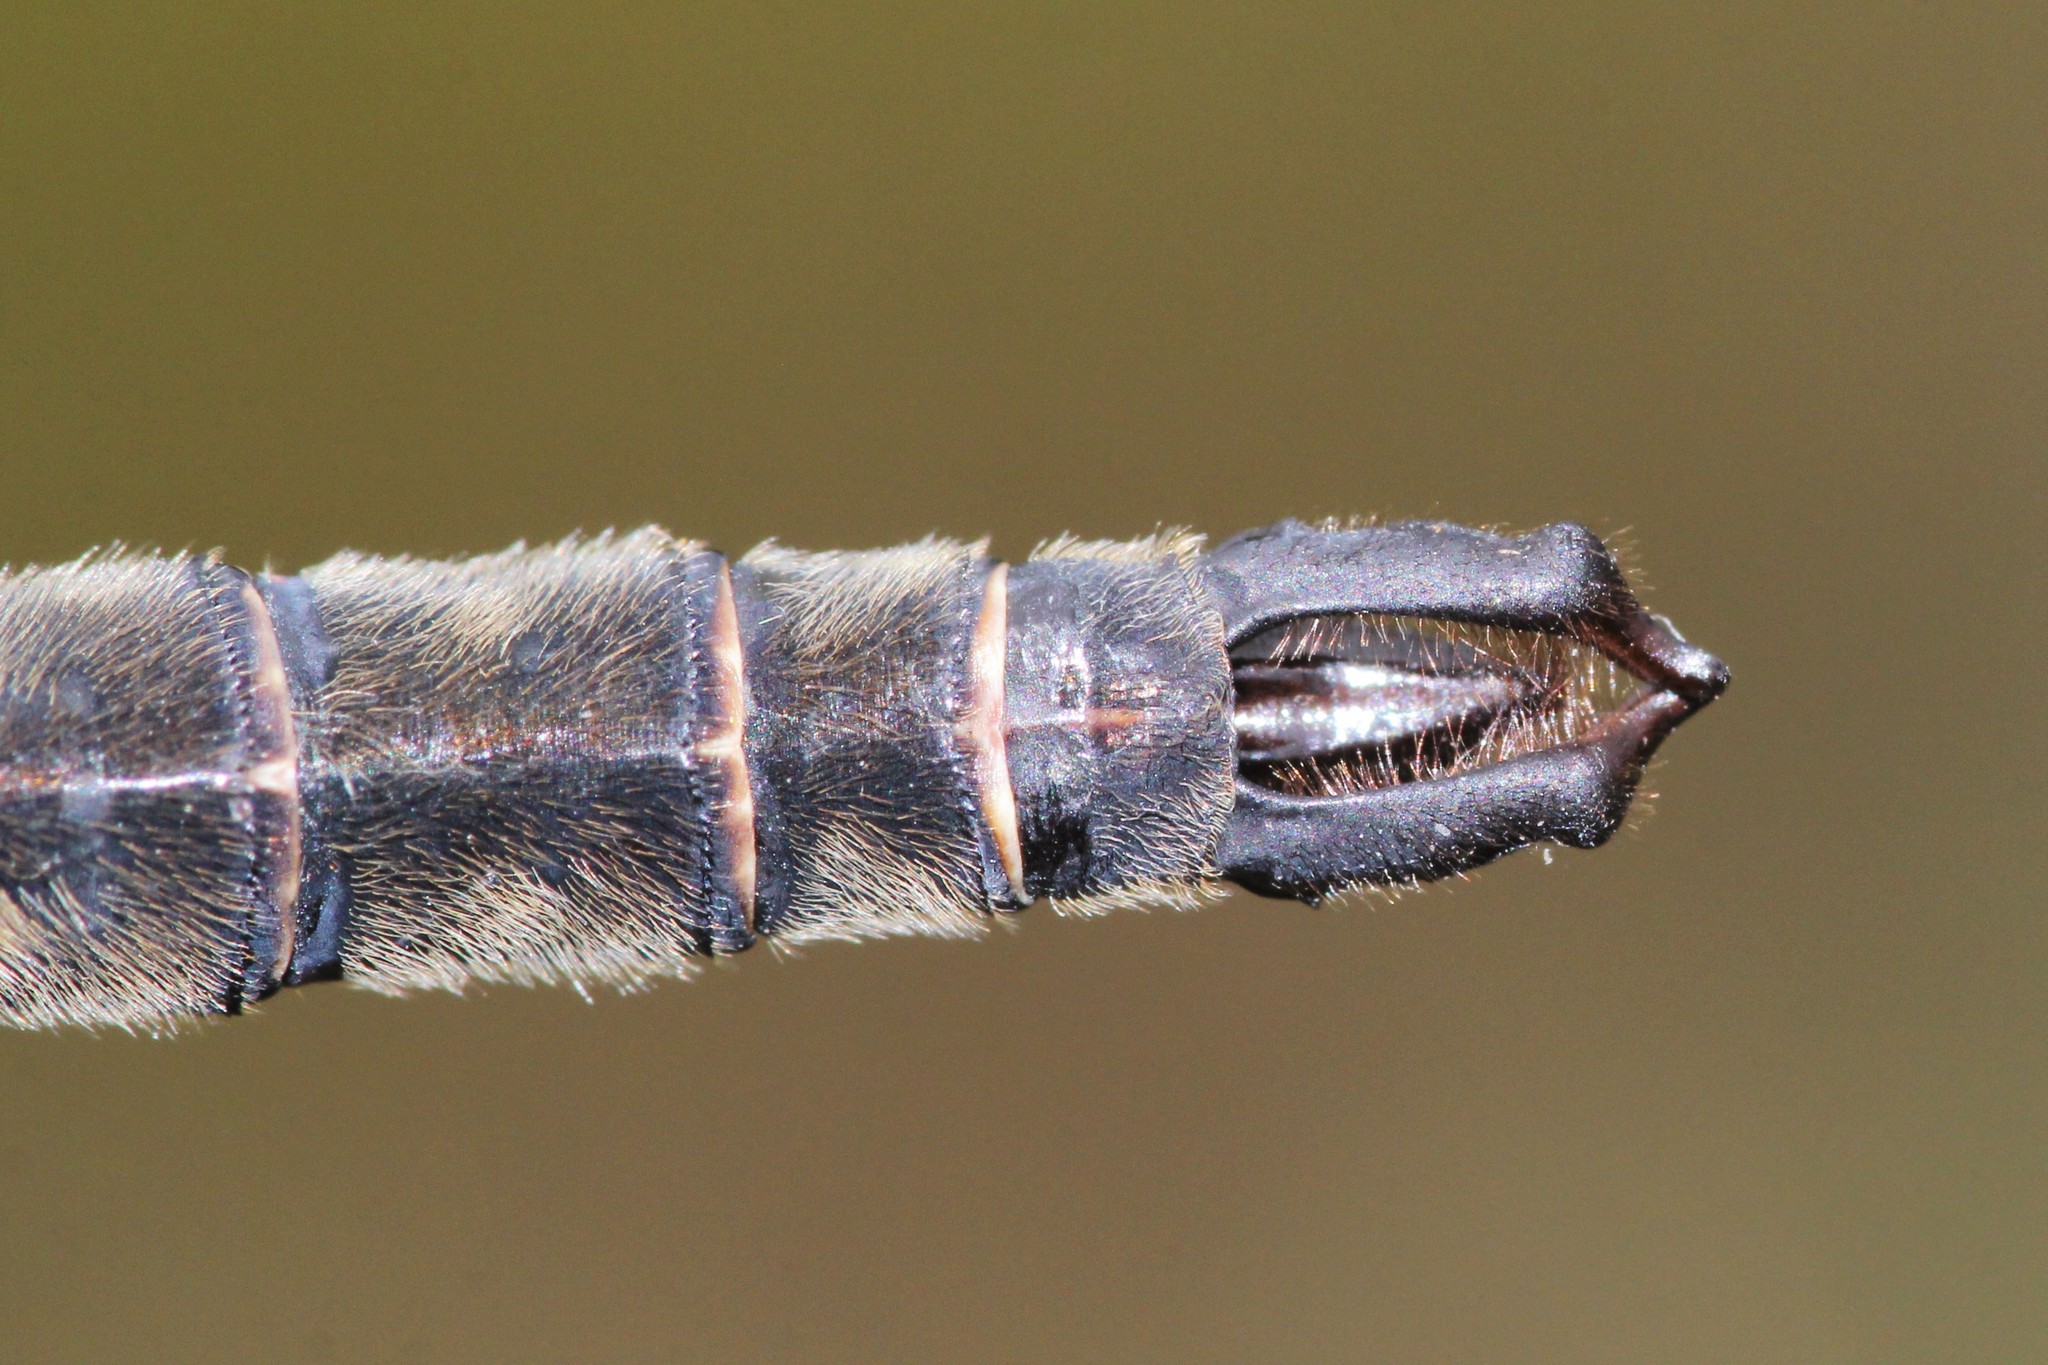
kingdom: Animalia
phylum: Arthropoda
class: Insecta
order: Odonata
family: Corduliidae
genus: Somatochlora
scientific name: Somatochlora brevicincta
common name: Quebec emerald
